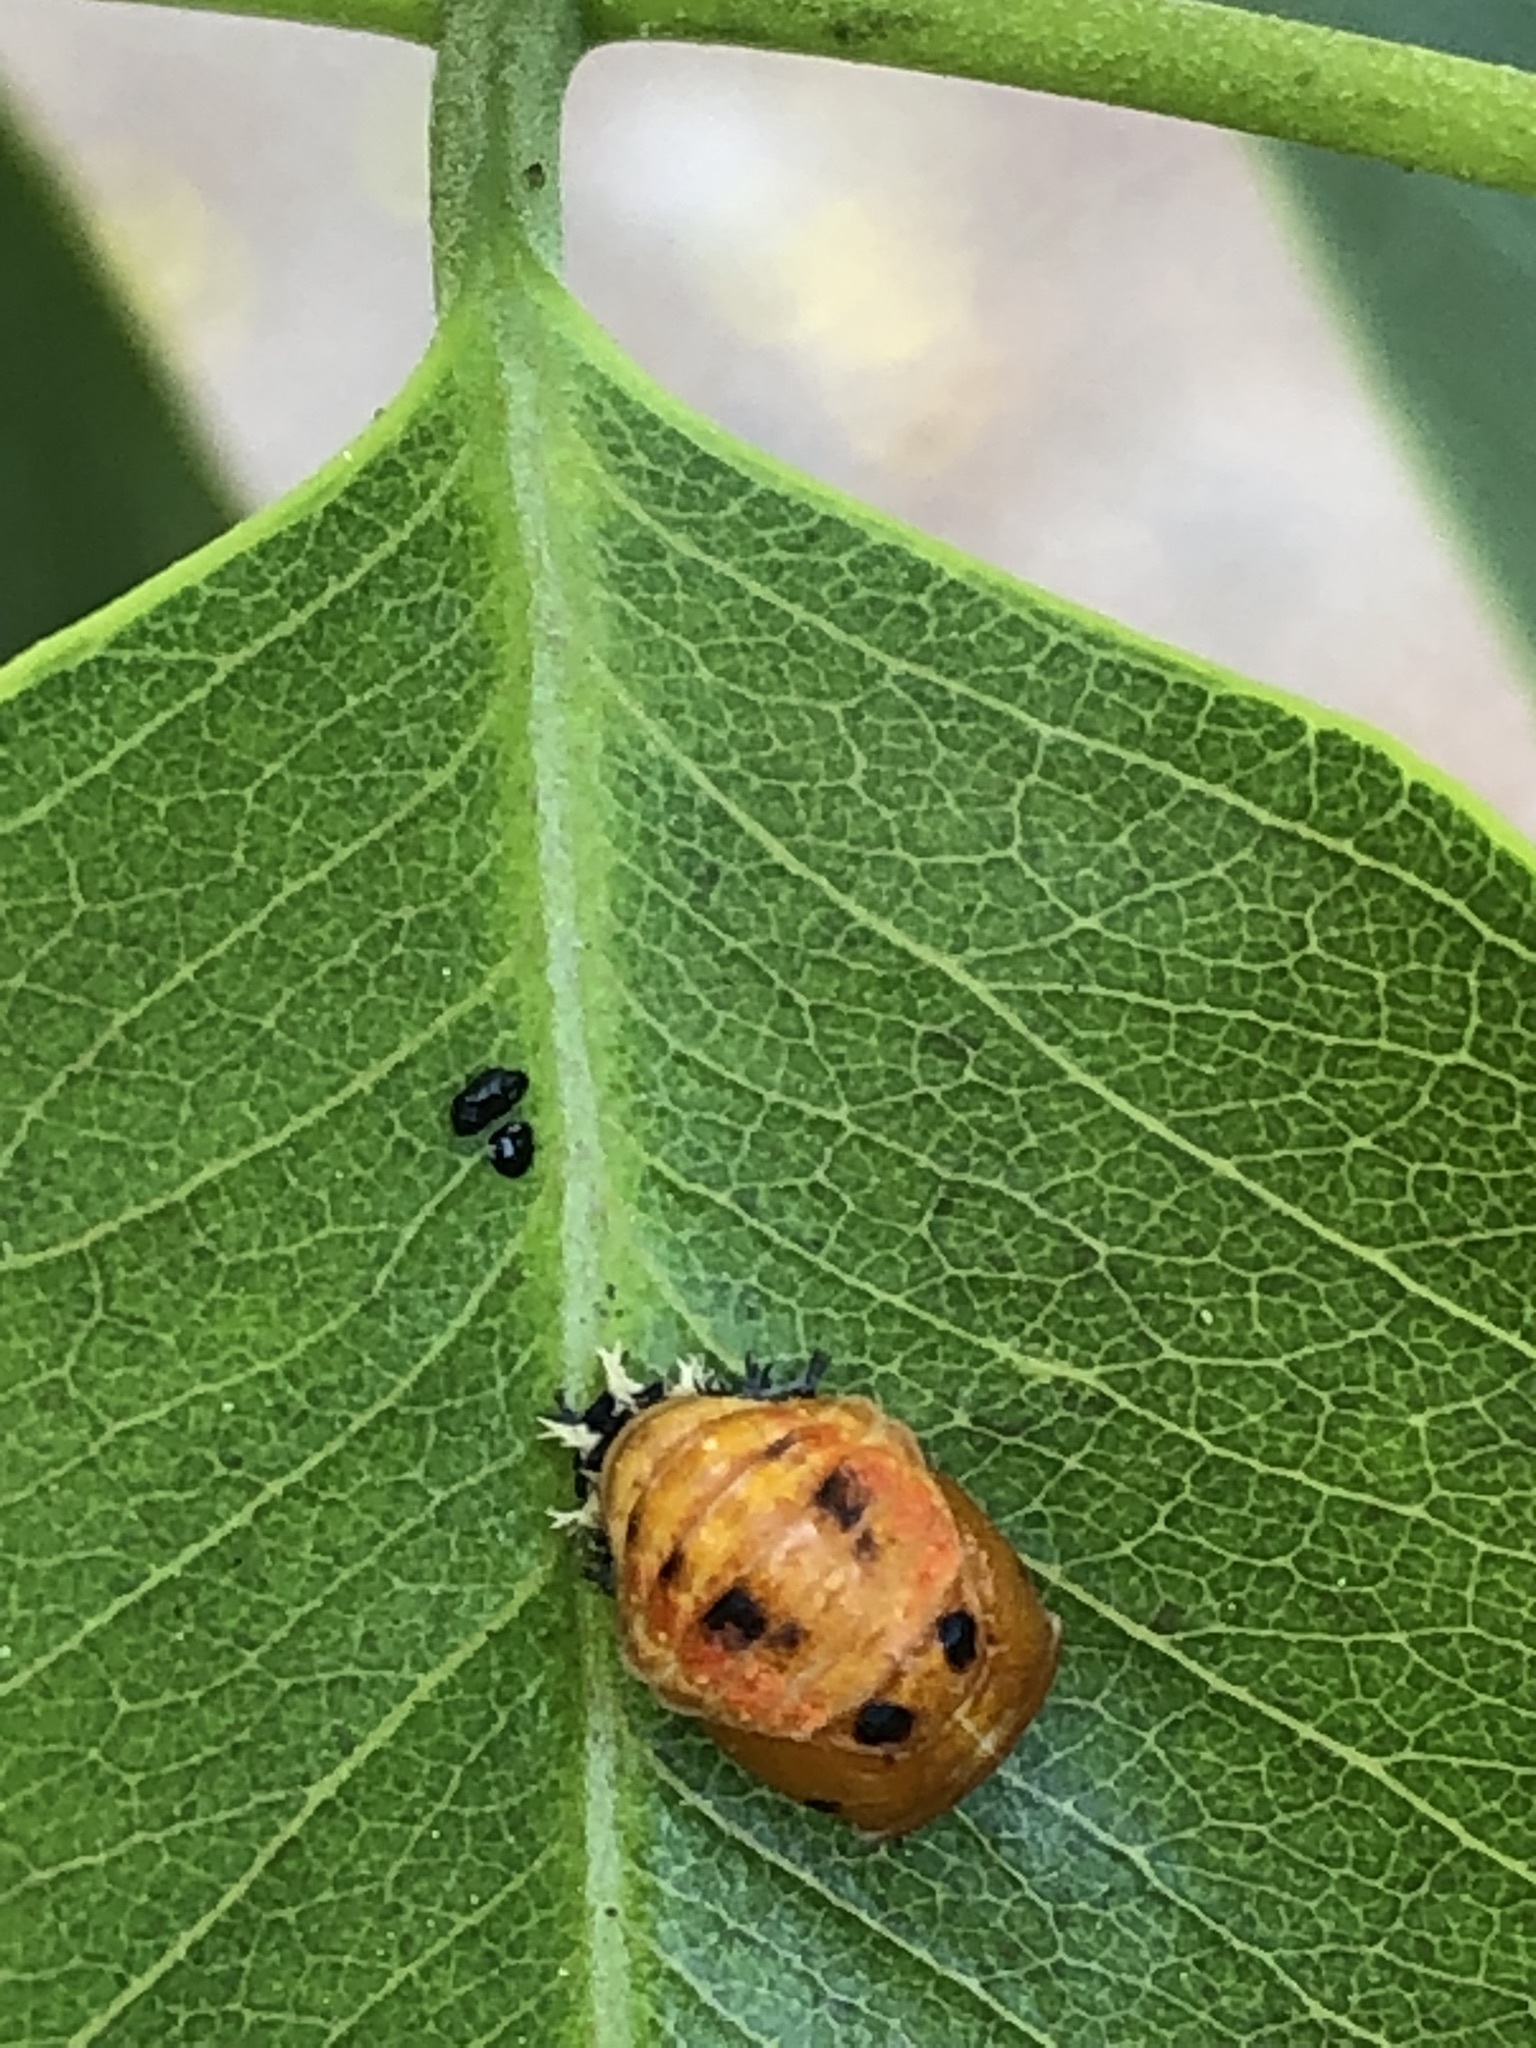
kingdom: Animalia
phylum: Arthropoda
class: Insecta
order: Coleoptera
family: Coccinellidae
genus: Harmonia
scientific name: Harmonia axyridis
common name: Harlequin ladybird
